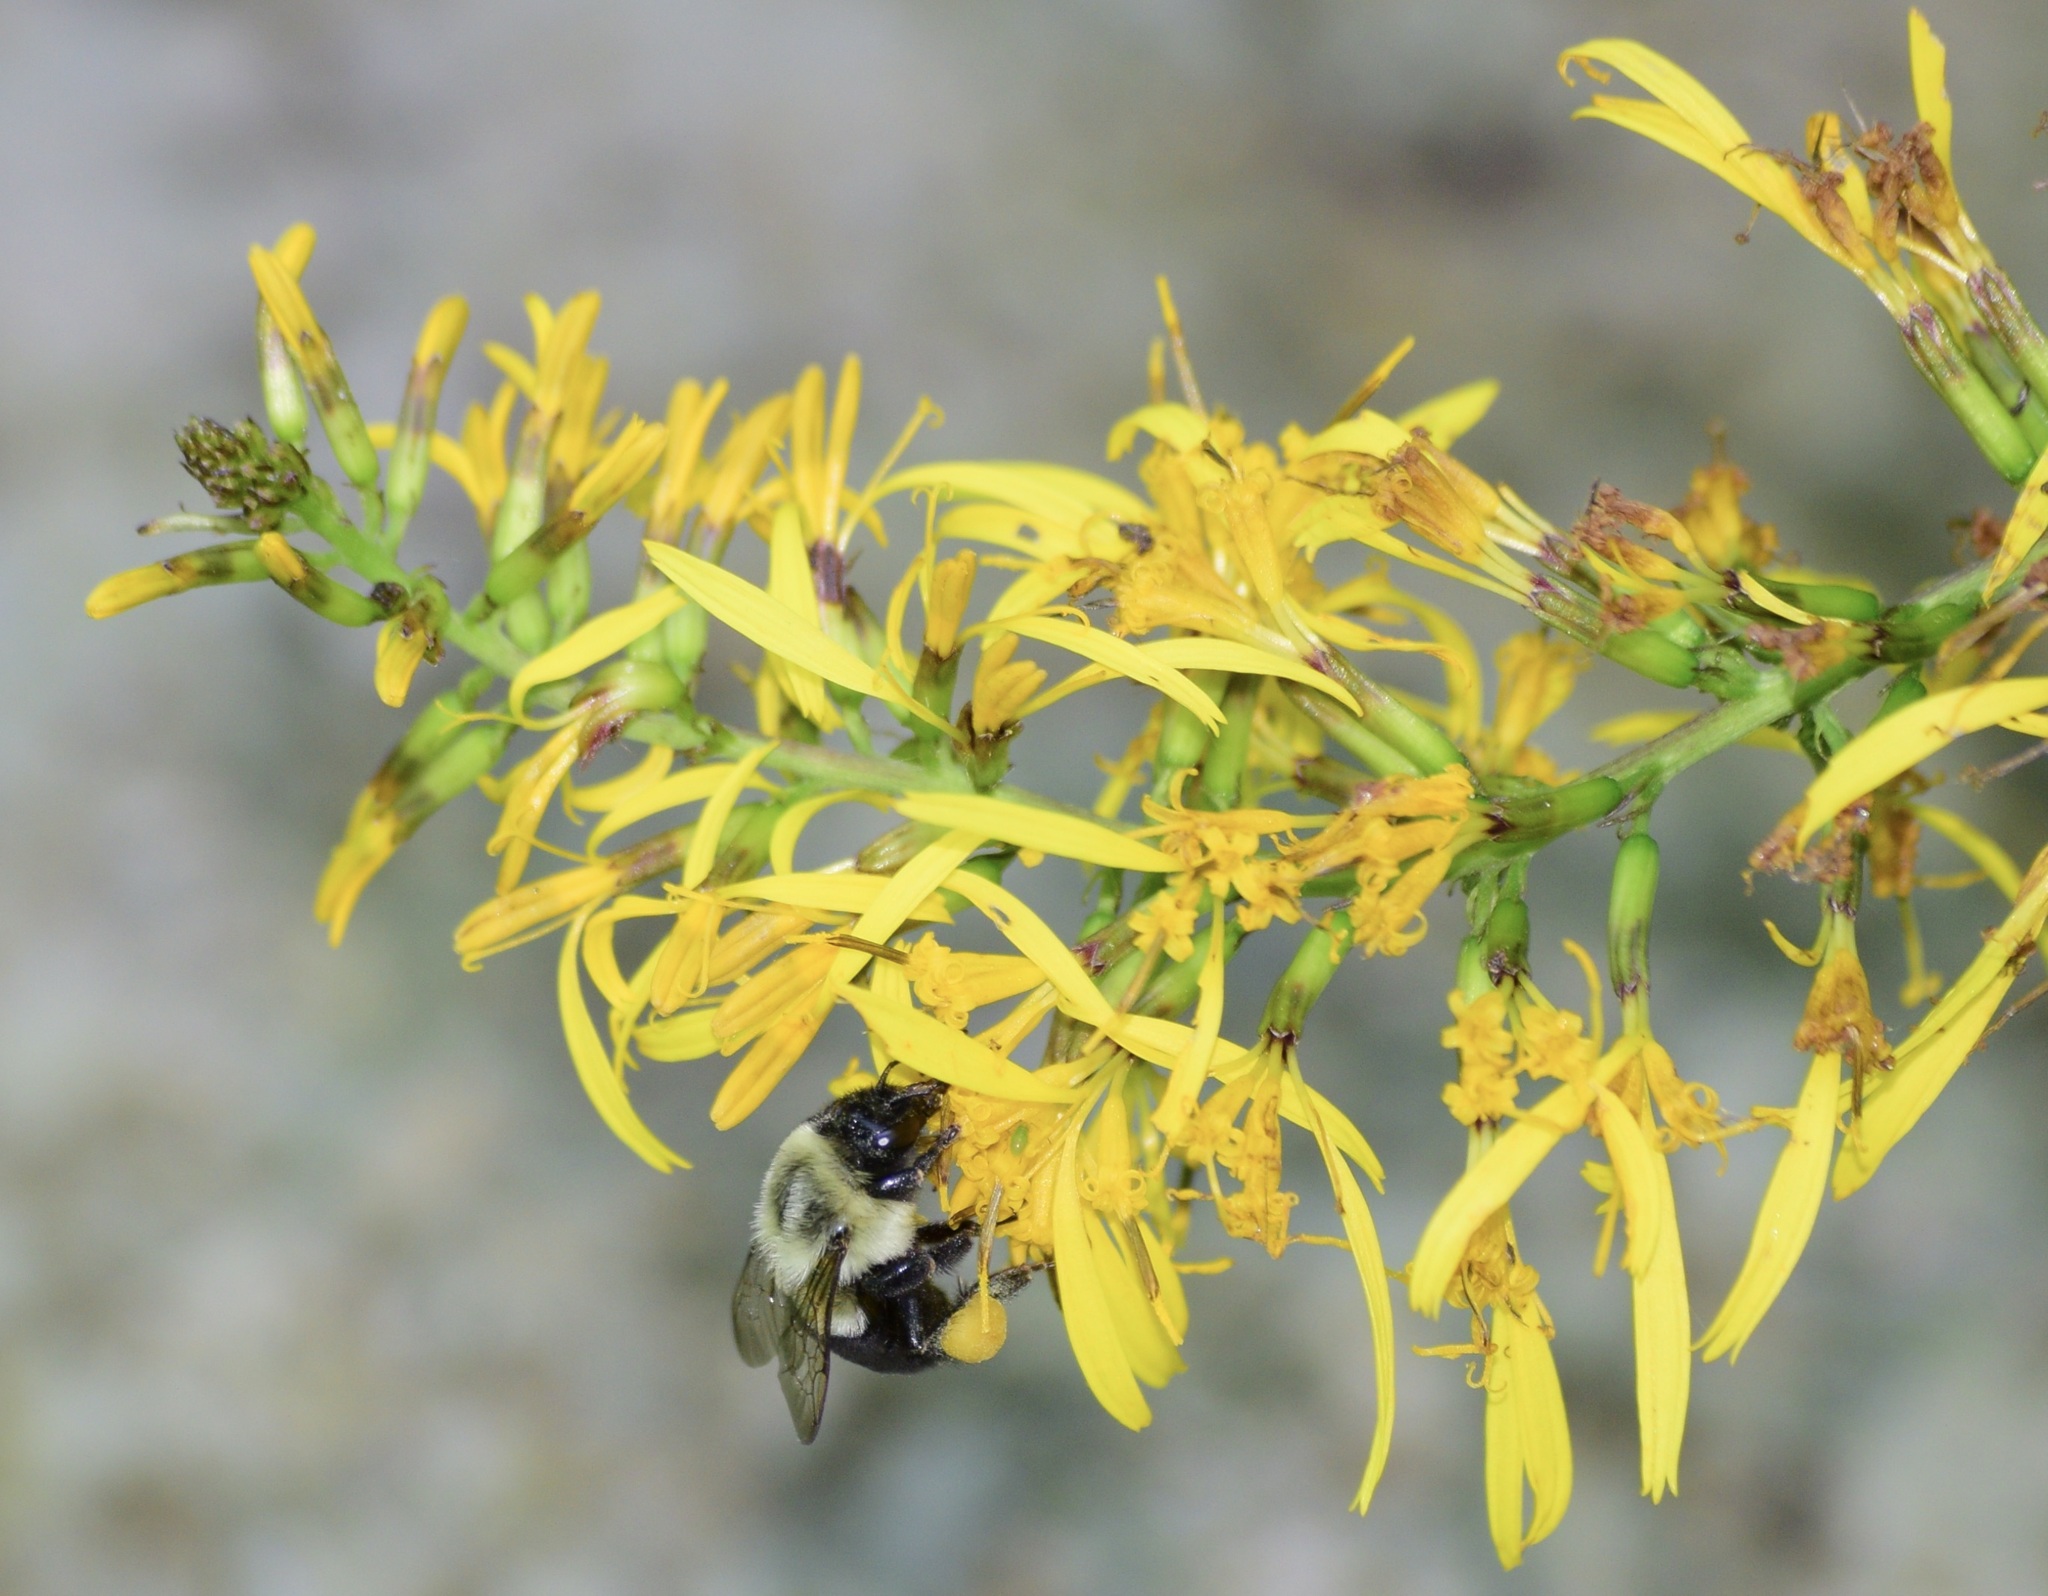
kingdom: Animalia
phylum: Arthropoda
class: Insecta
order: Hymenoptera
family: Apidae
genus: Bombus
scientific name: Bombus impatiens
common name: Common eastern bumble bee
